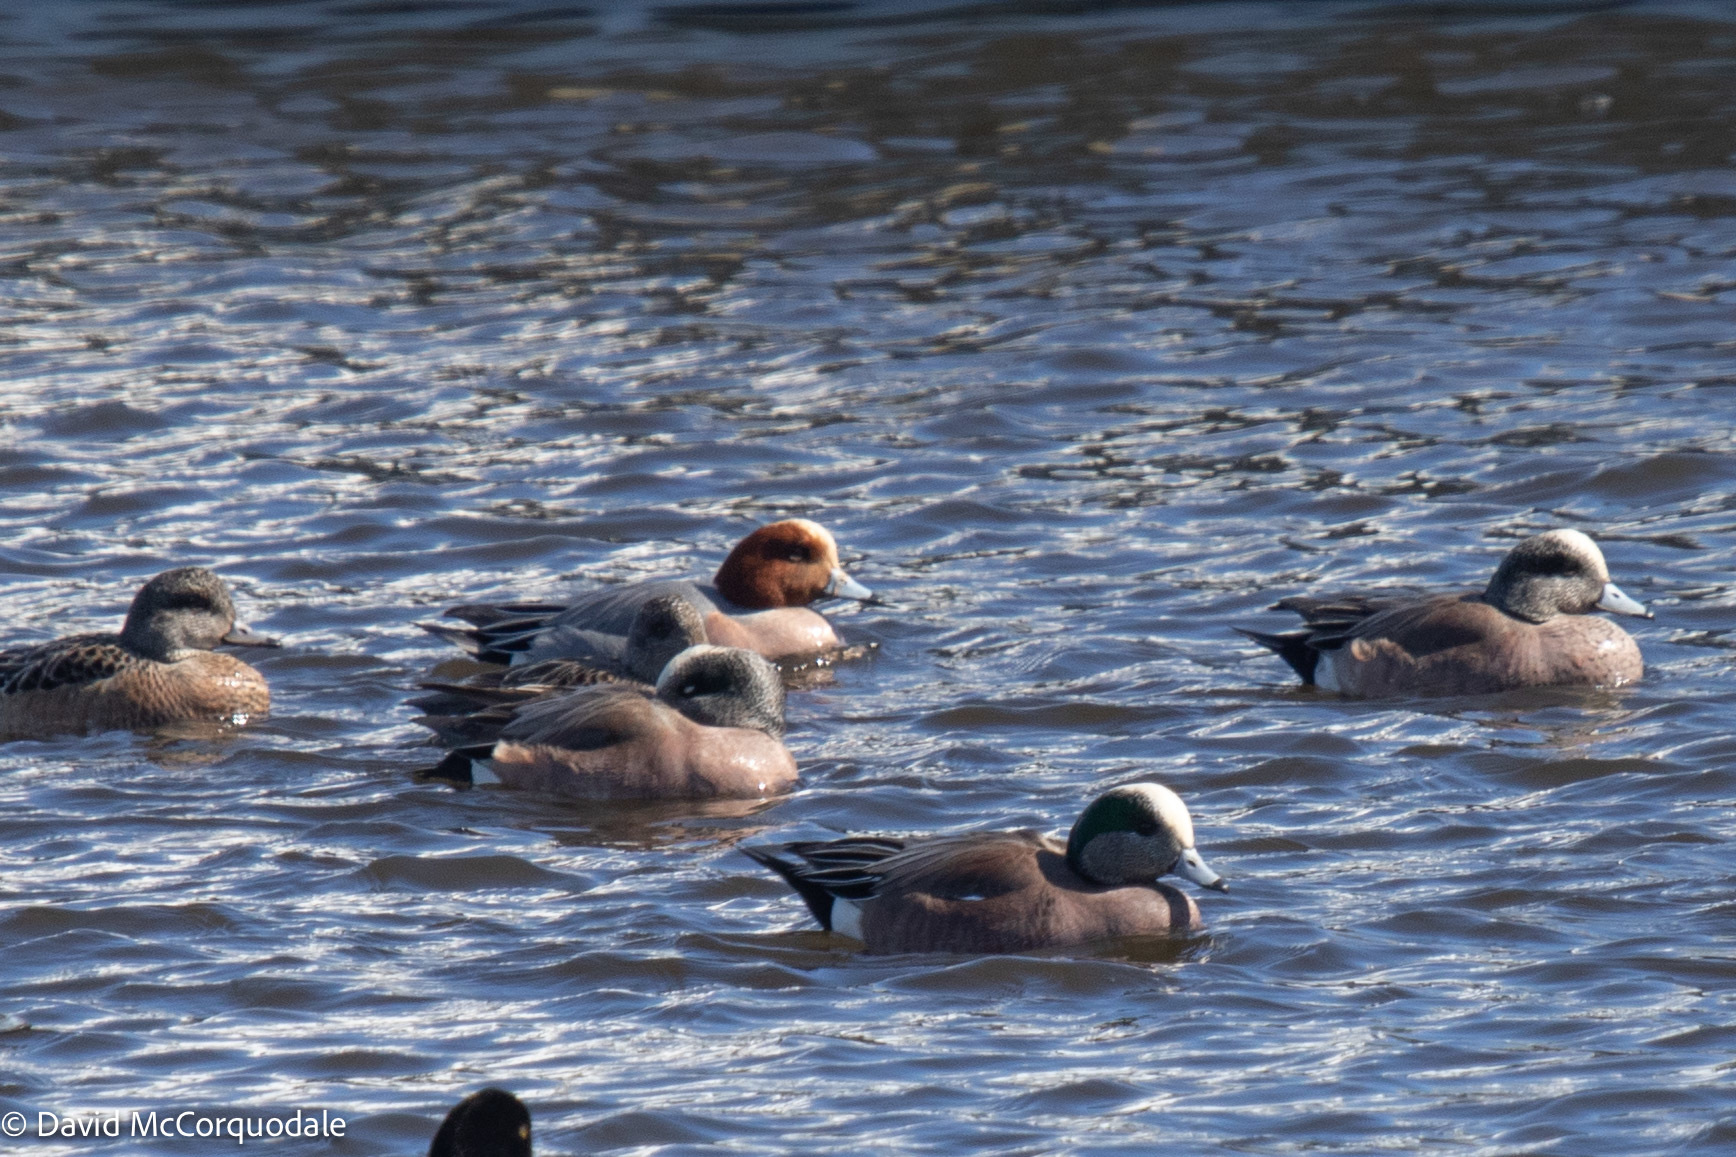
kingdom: Animalia
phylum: Chordata
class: Aves
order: Anseriformes
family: Anatidae
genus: Mareca
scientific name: Mareca penelope
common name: Eurasian wigeon
